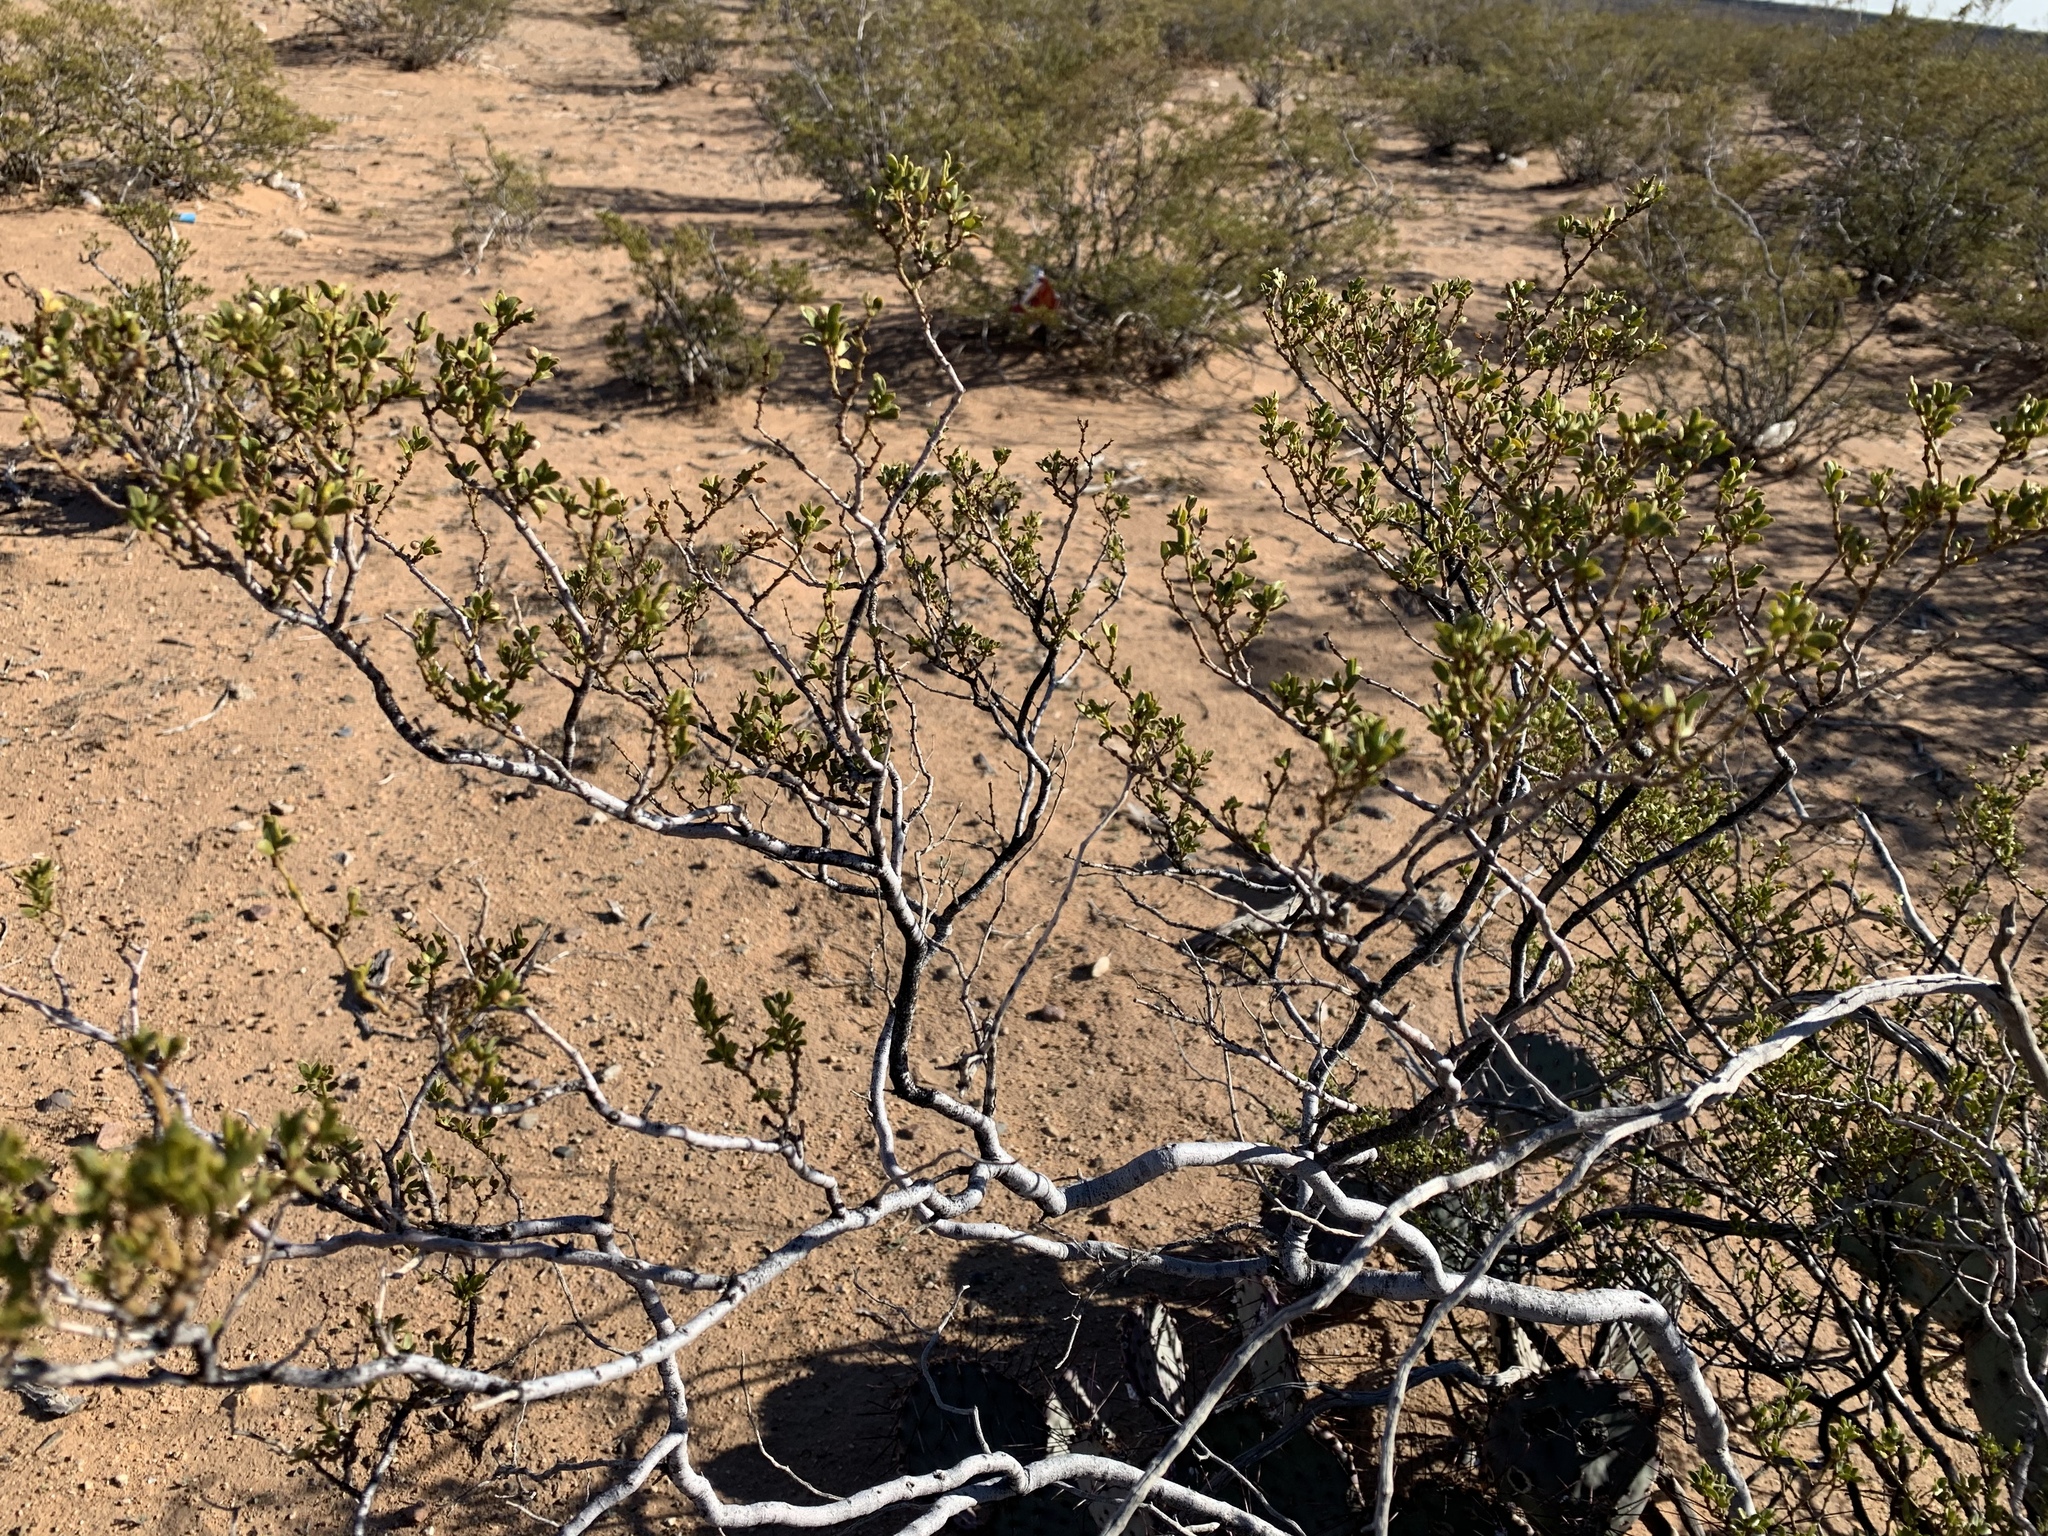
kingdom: Plantae
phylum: Tracheophyta
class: Magnoliopsida
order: Zygophyllales
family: Zygophyllaceae
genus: Larrea
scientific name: Larrea tridentata
